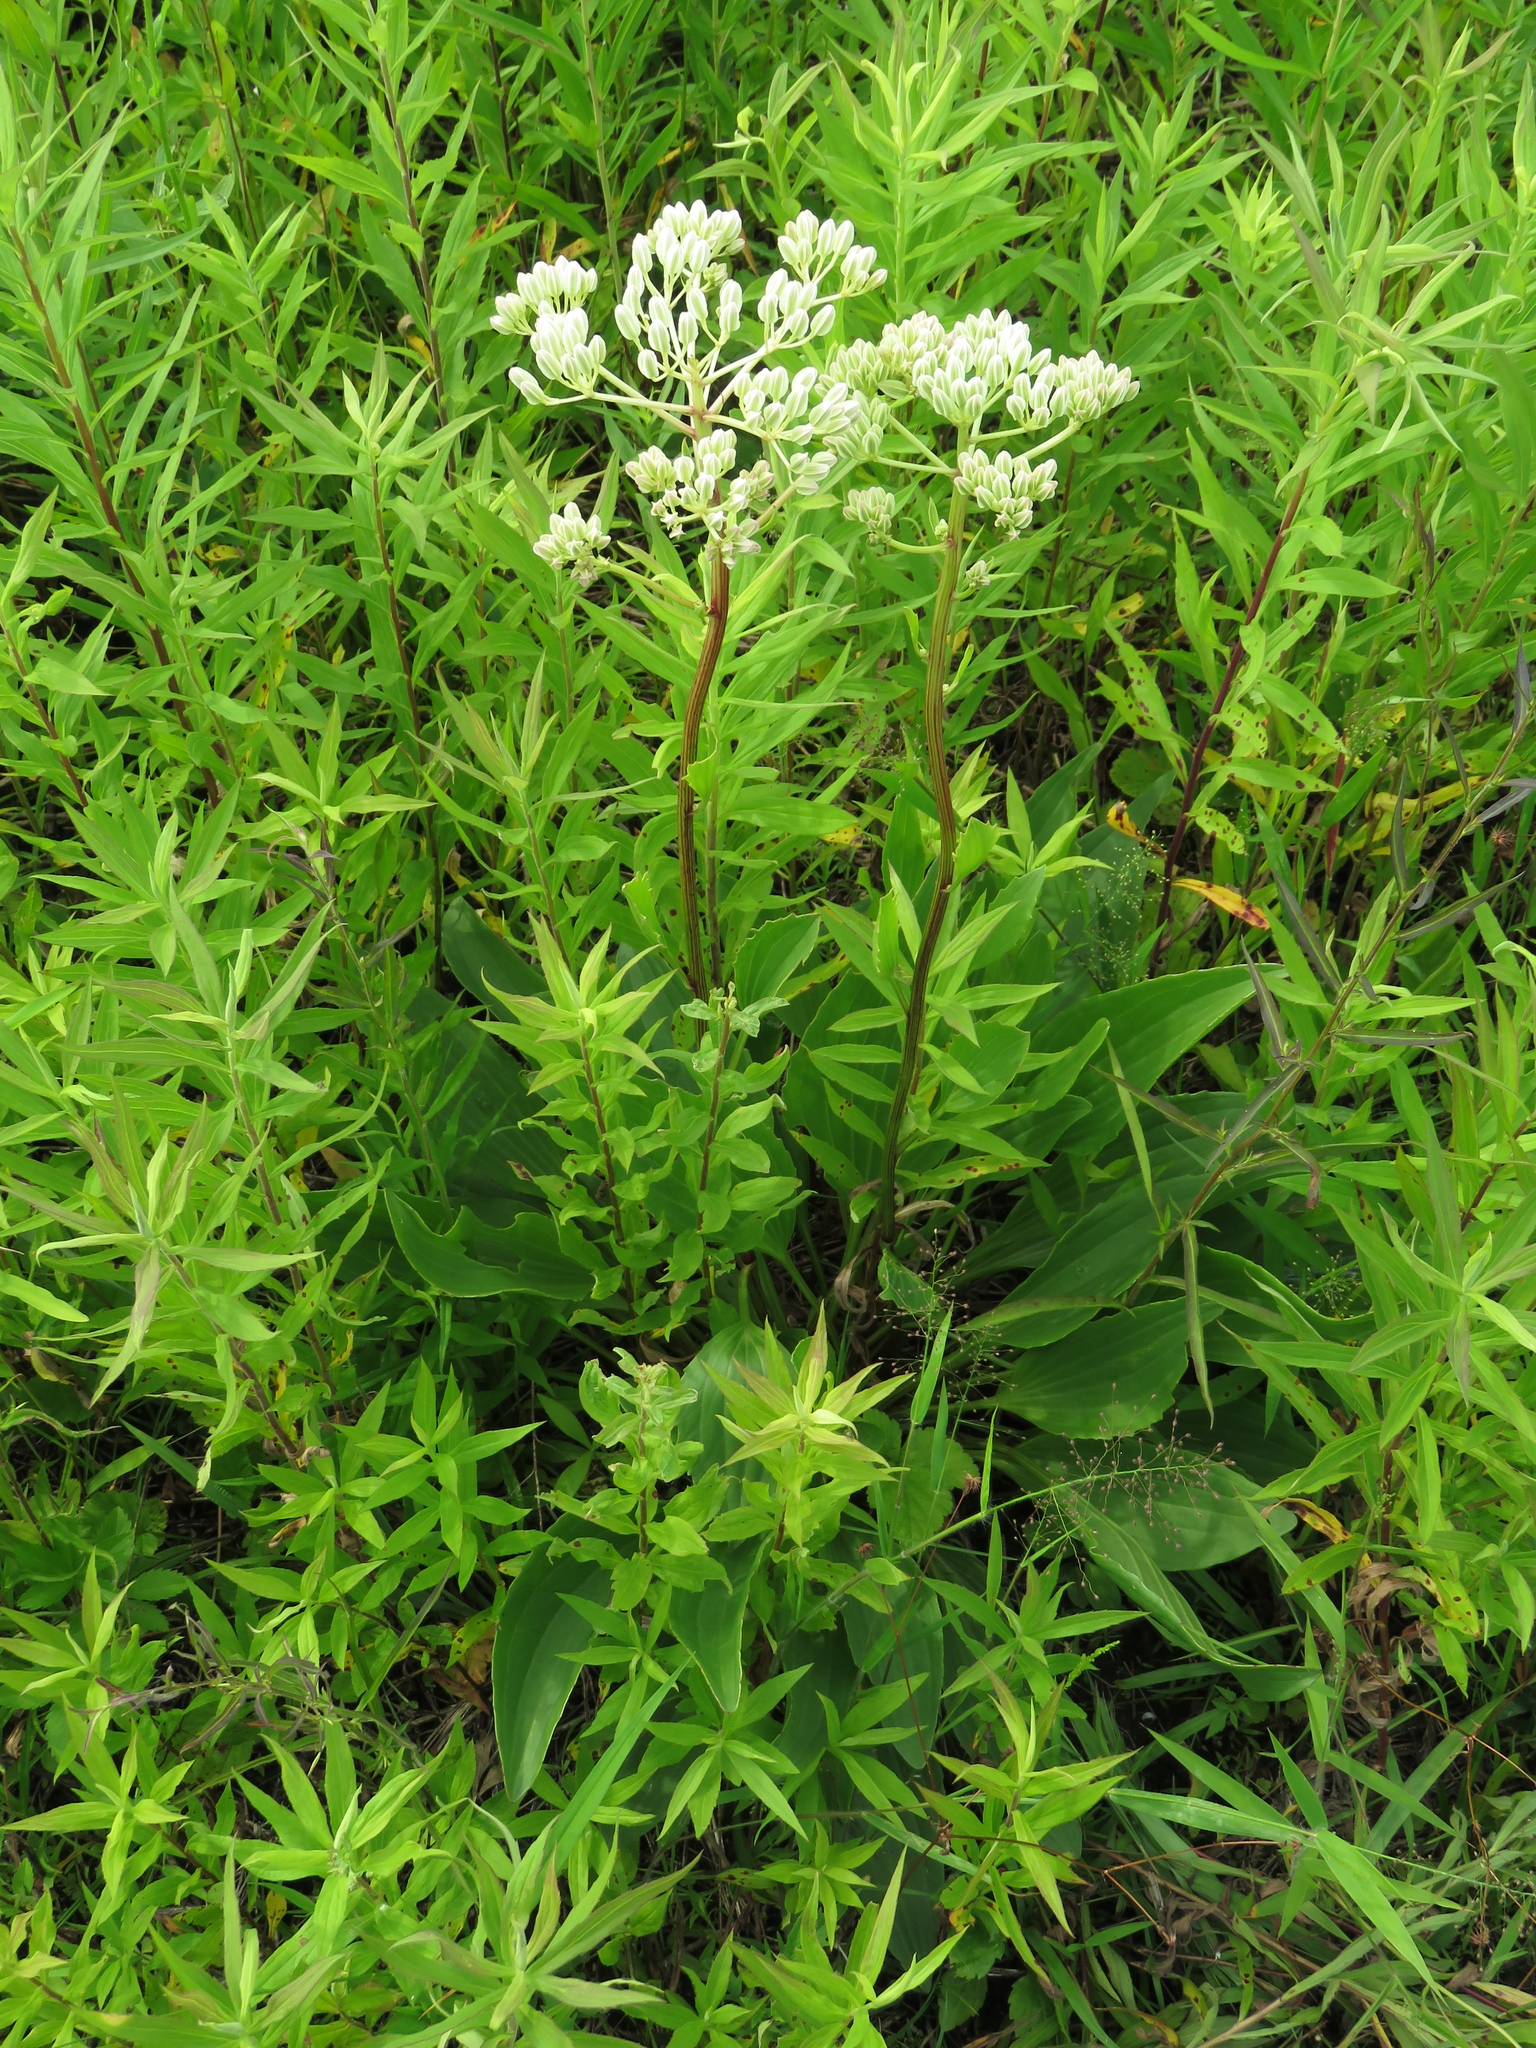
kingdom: Plantae
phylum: Tracheophyta
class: Magnoliopsida
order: Asterales
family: Asteraceae
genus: Arnoglossum
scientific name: Arnoglossum plantagineum
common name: Groove-stemmed indian-plantain
